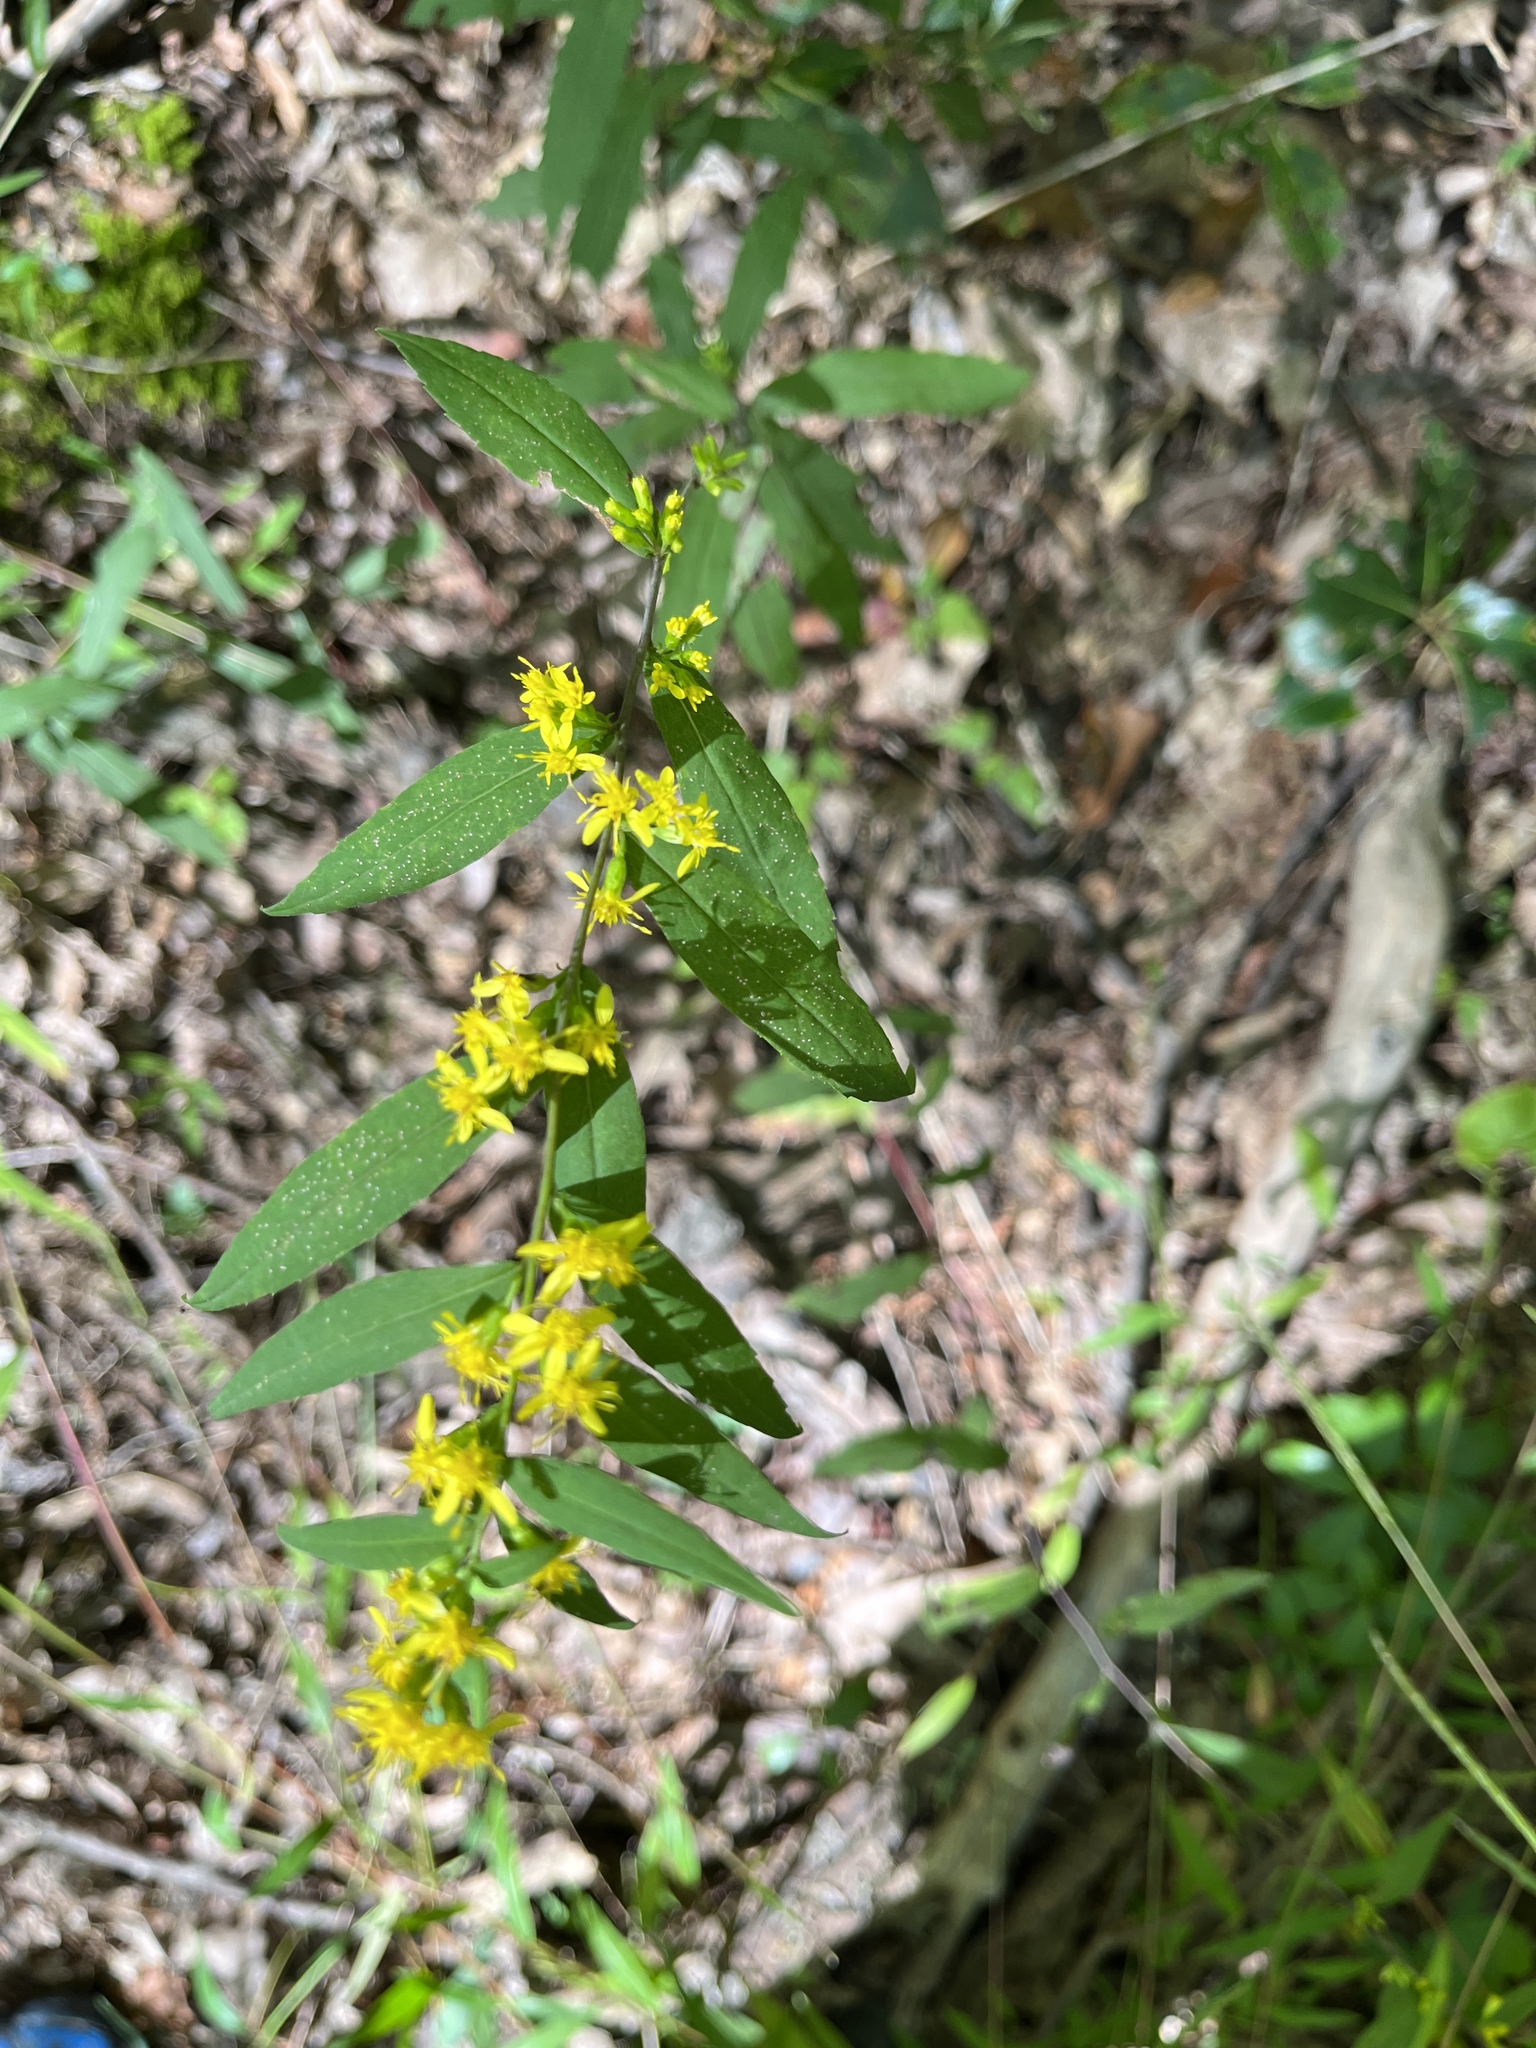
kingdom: Plantae
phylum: Tracheophyta
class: Magnoliopsida
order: Asterales
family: Asteraceae
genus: Solidago
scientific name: Solidago caesia
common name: Woodland goldenrod
